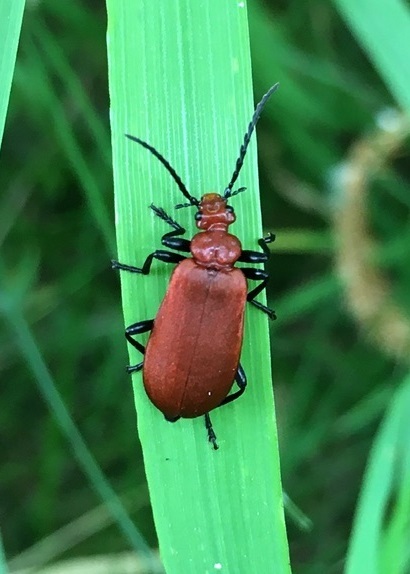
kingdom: Animalia
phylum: Arthropoda
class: Insecta
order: Coleoptera
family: Pyrochroidae
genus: Pyrochroa
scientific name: Pyrochroa serraticornis
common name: Red-headed cardinal beetle
